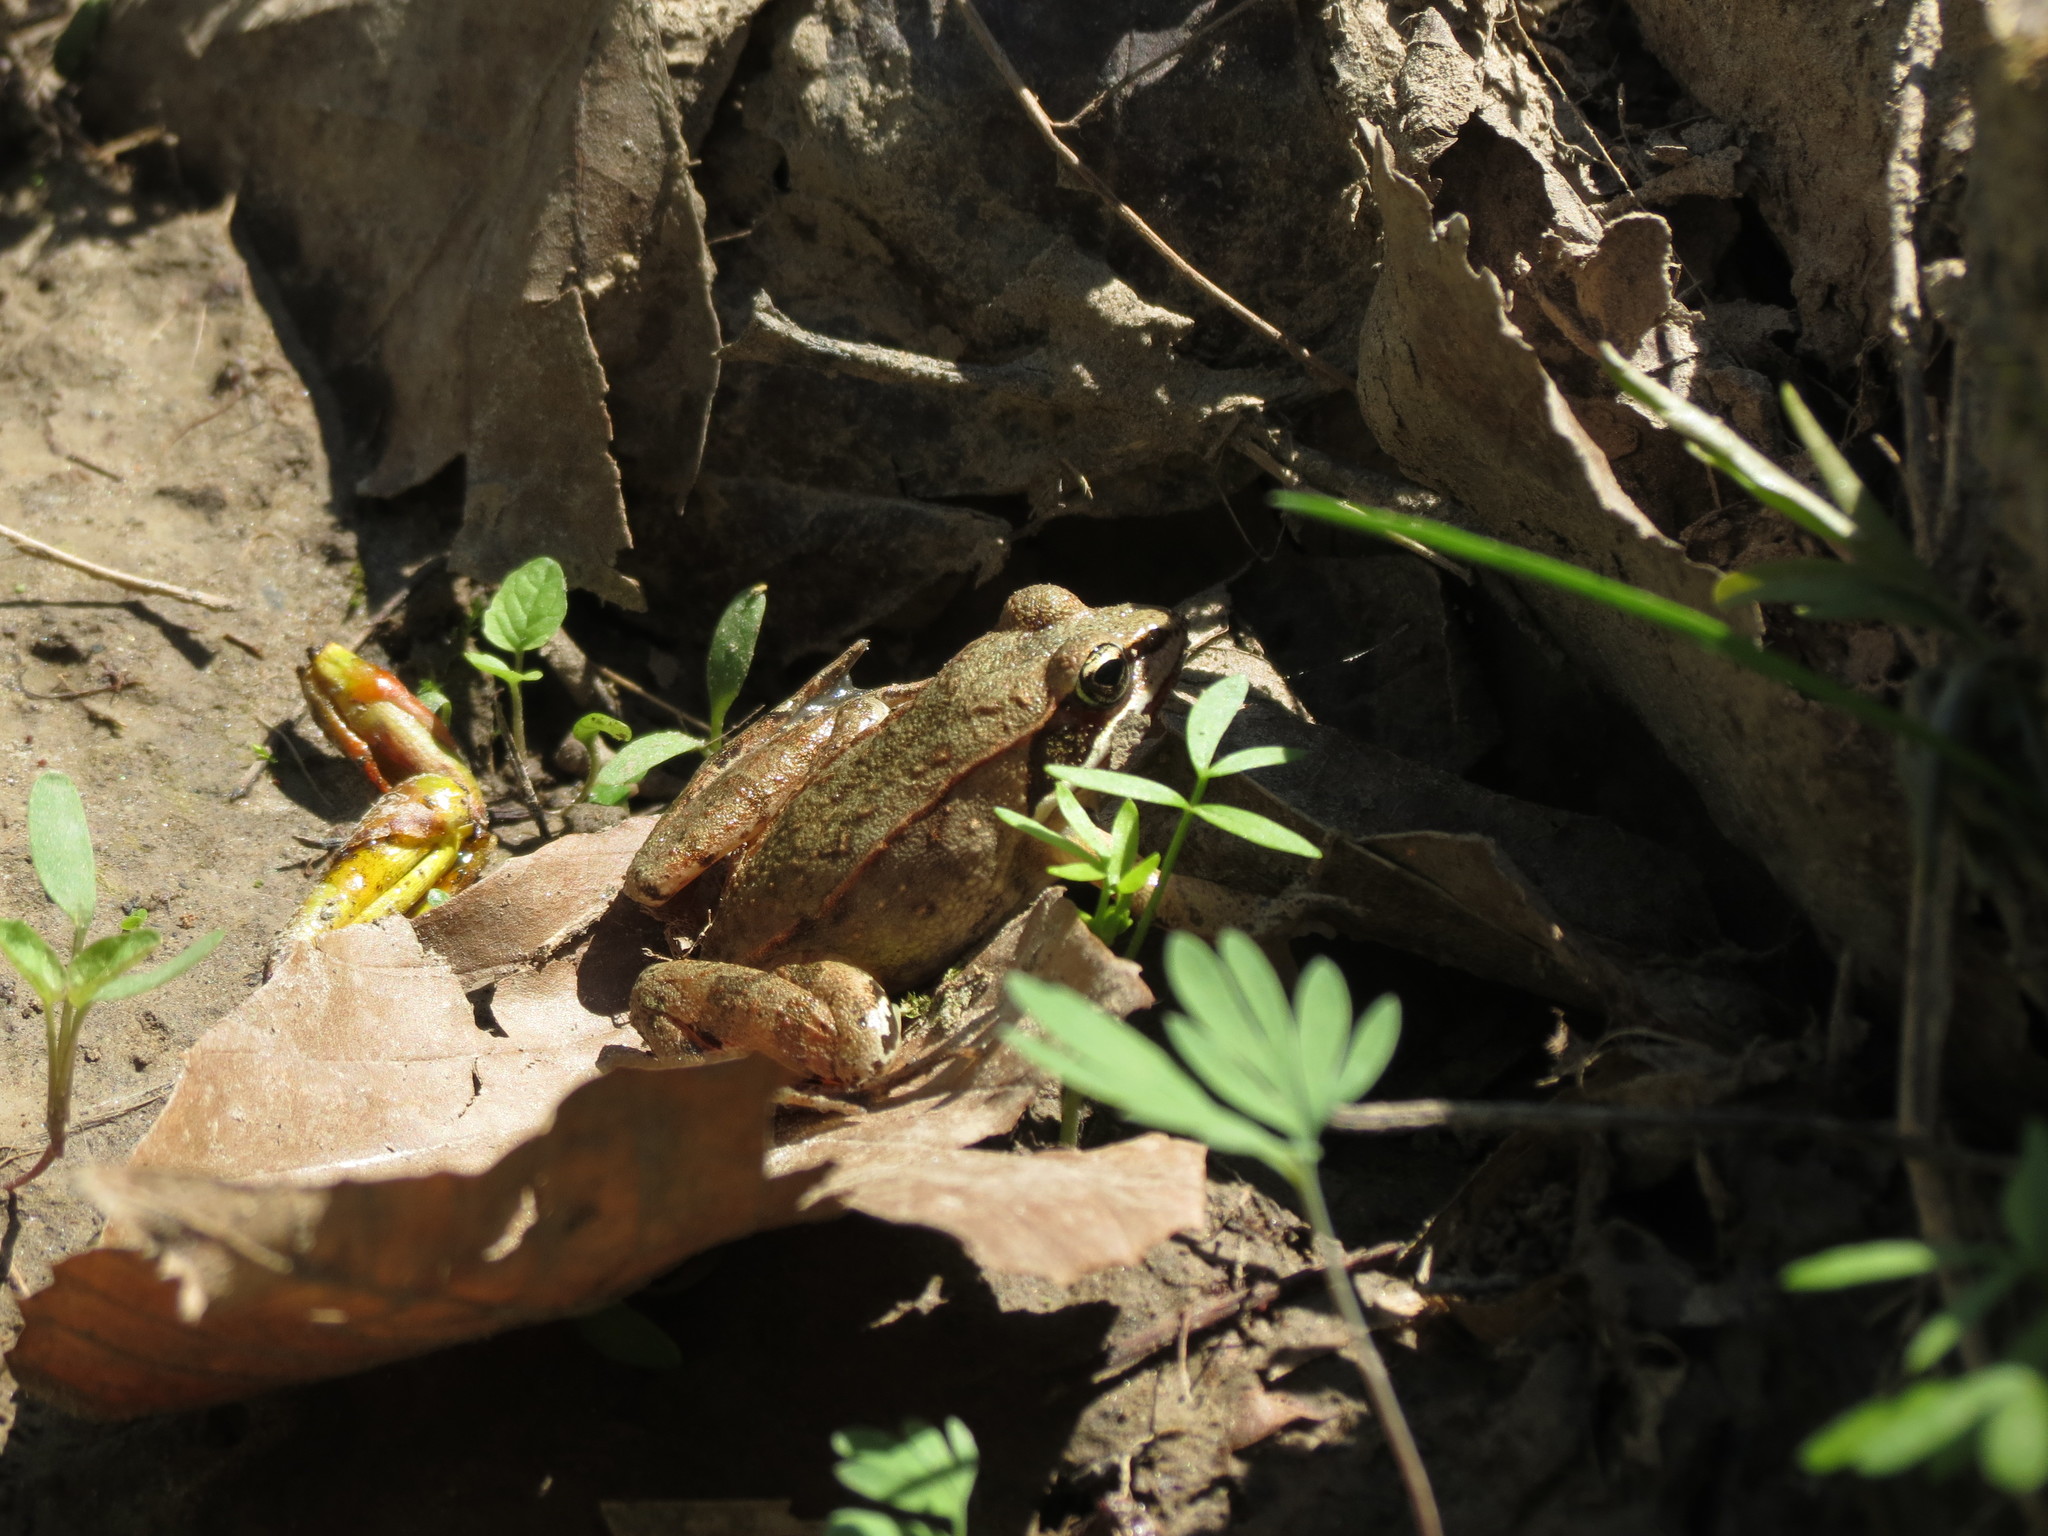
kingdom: Animalia
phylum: Chordata
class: Amphibia
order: Anura
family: Ranidae
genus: Lithobates
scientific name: Lithobates sylvaticus
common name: Wood frog
